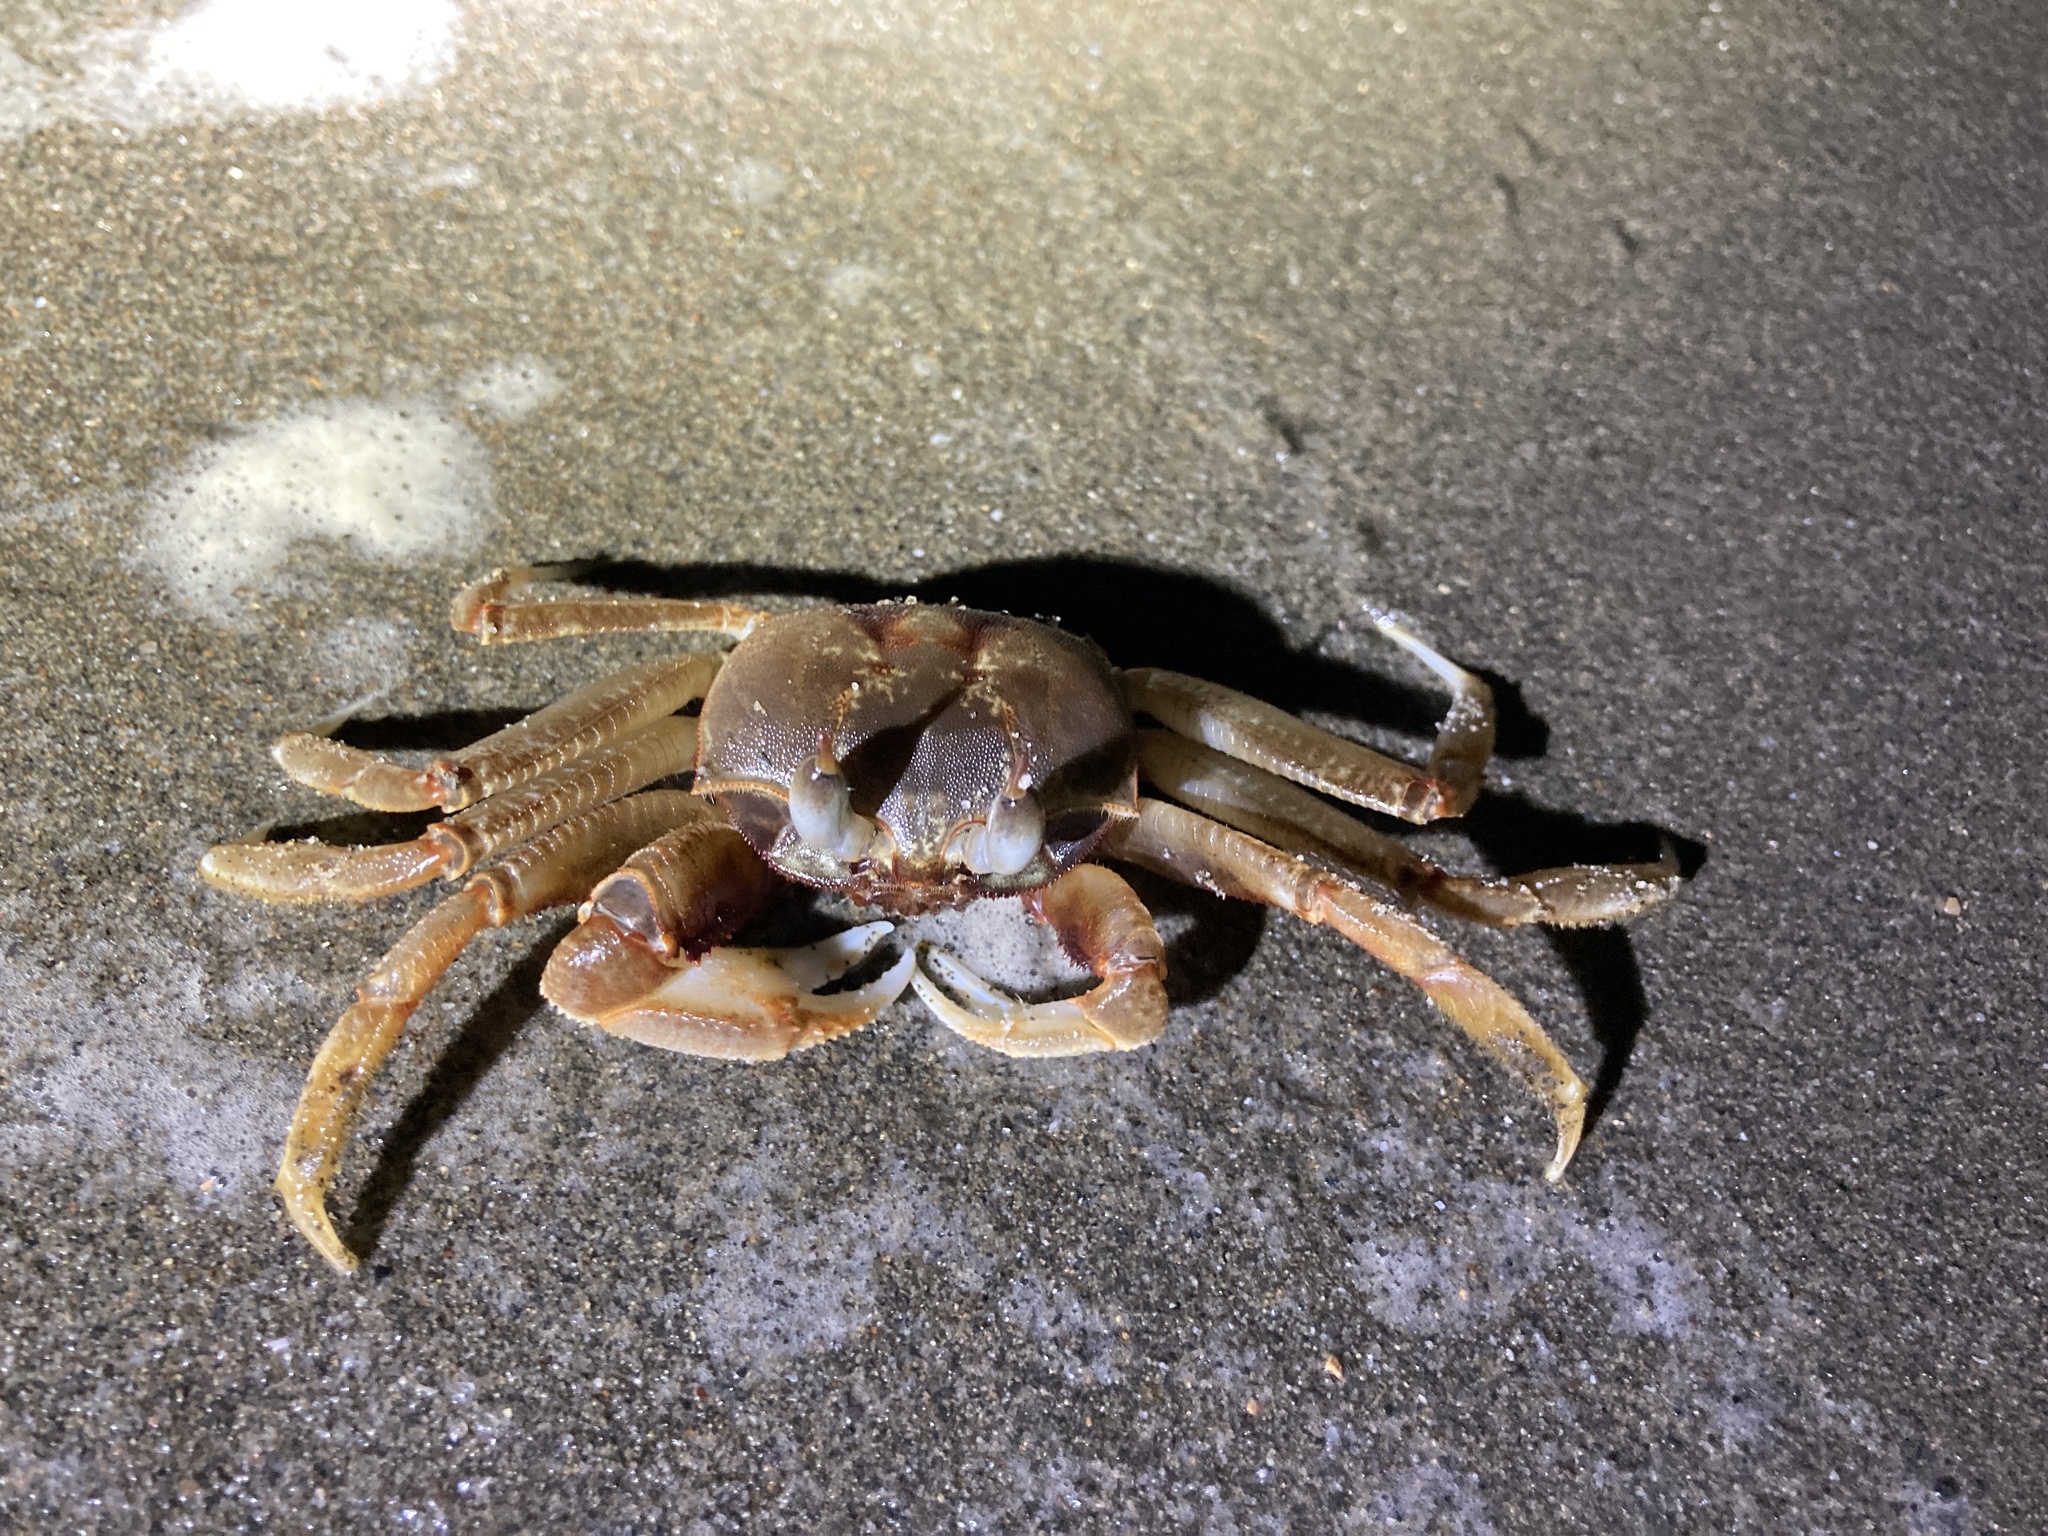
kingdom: Animalia
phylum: Arthropoda
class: Malacostraca
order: Decapoda
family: Ocypodidae
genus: Ocypode
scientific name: Ocypode ceratophthalmus
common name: Indo-pacific ghost crab
